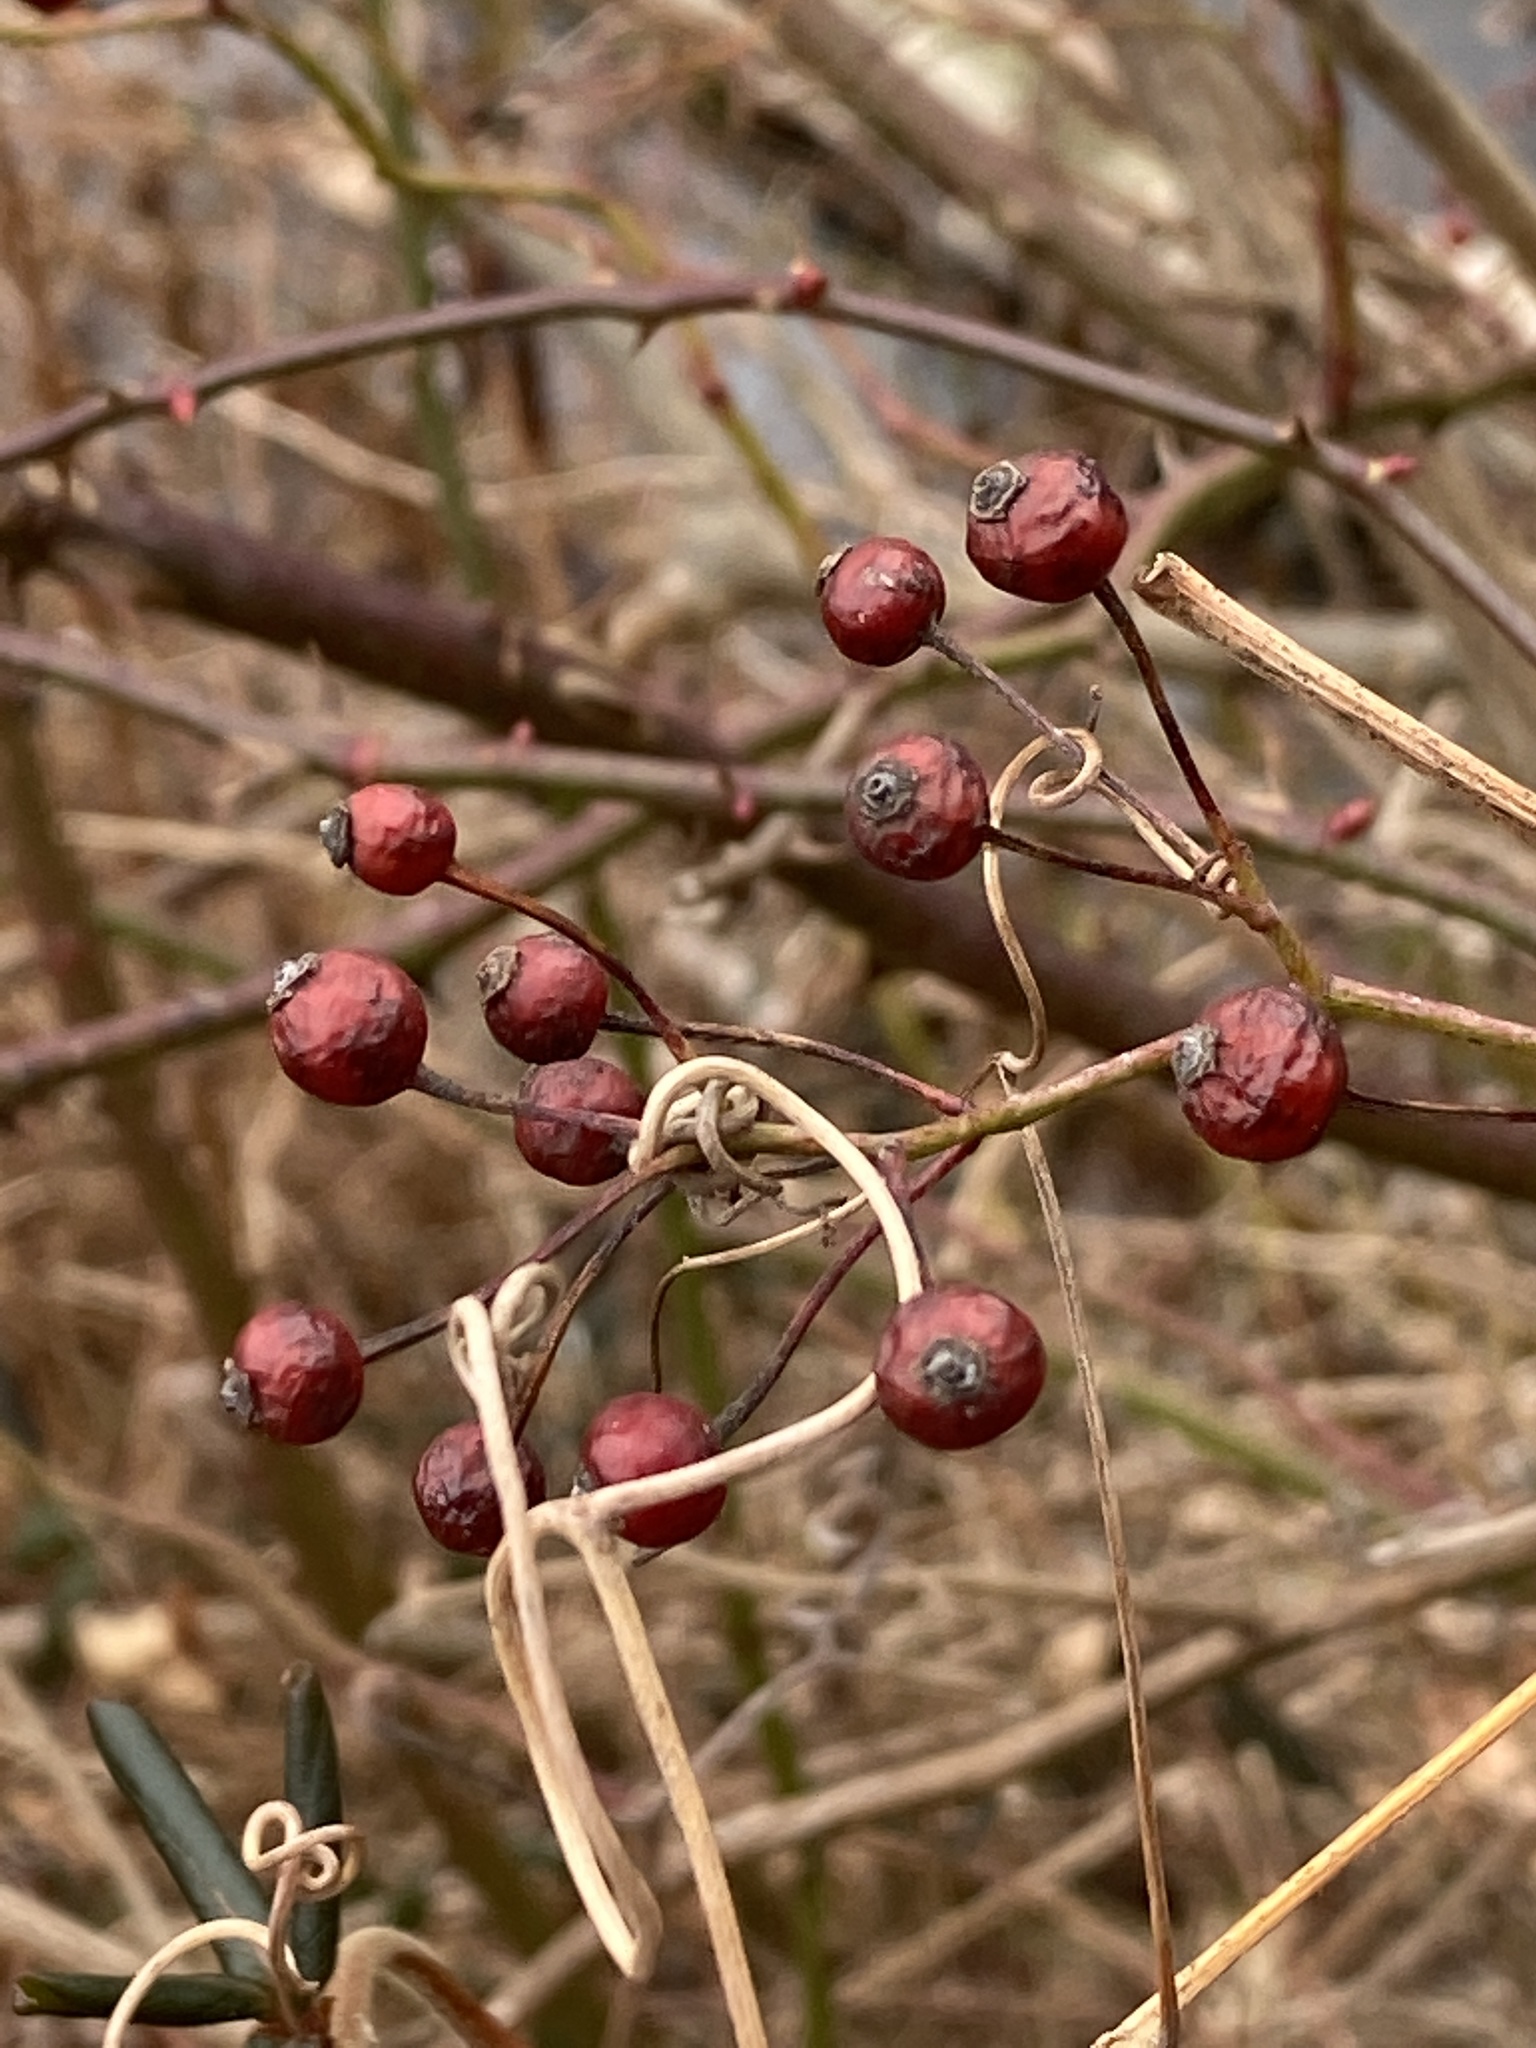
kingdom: Plantae
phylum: Tracheophyta
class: Magnoliopsida
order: Rosales
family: Rosaceae
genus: Rosa
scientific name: Rosa multiflora
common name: Multiflora rose
